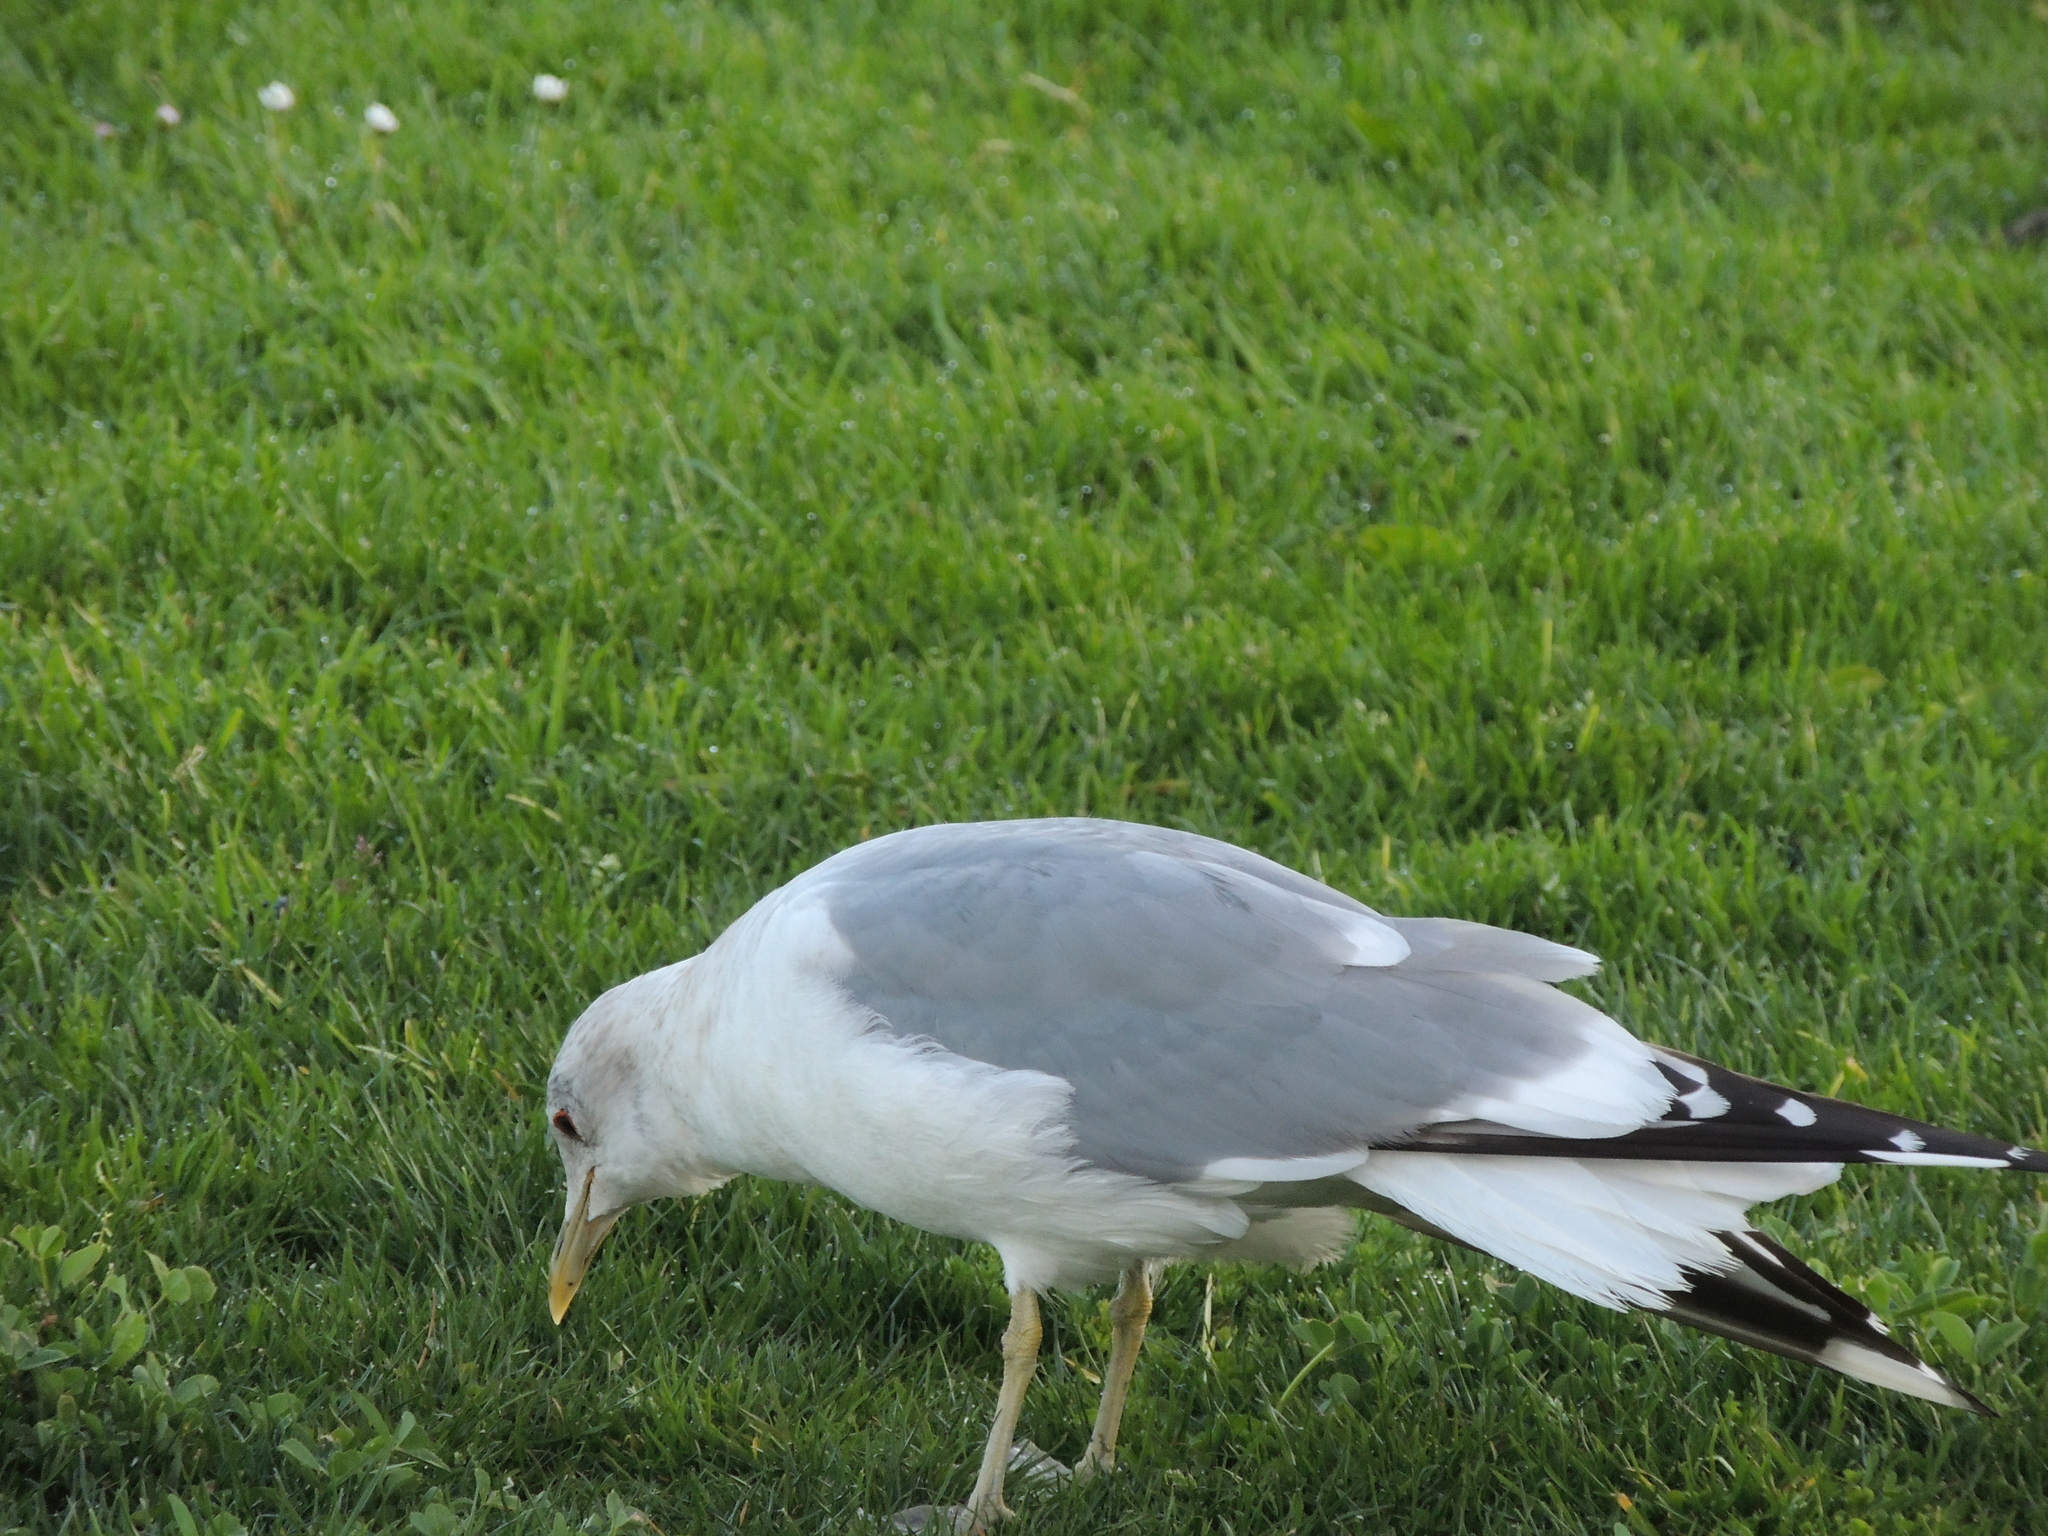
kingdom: Animalia
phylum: Chordata
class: Aves
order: Charadriiformes
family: Laridae
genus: Larus
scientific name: Larus brachyrhynchus
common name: Short-billed gull
